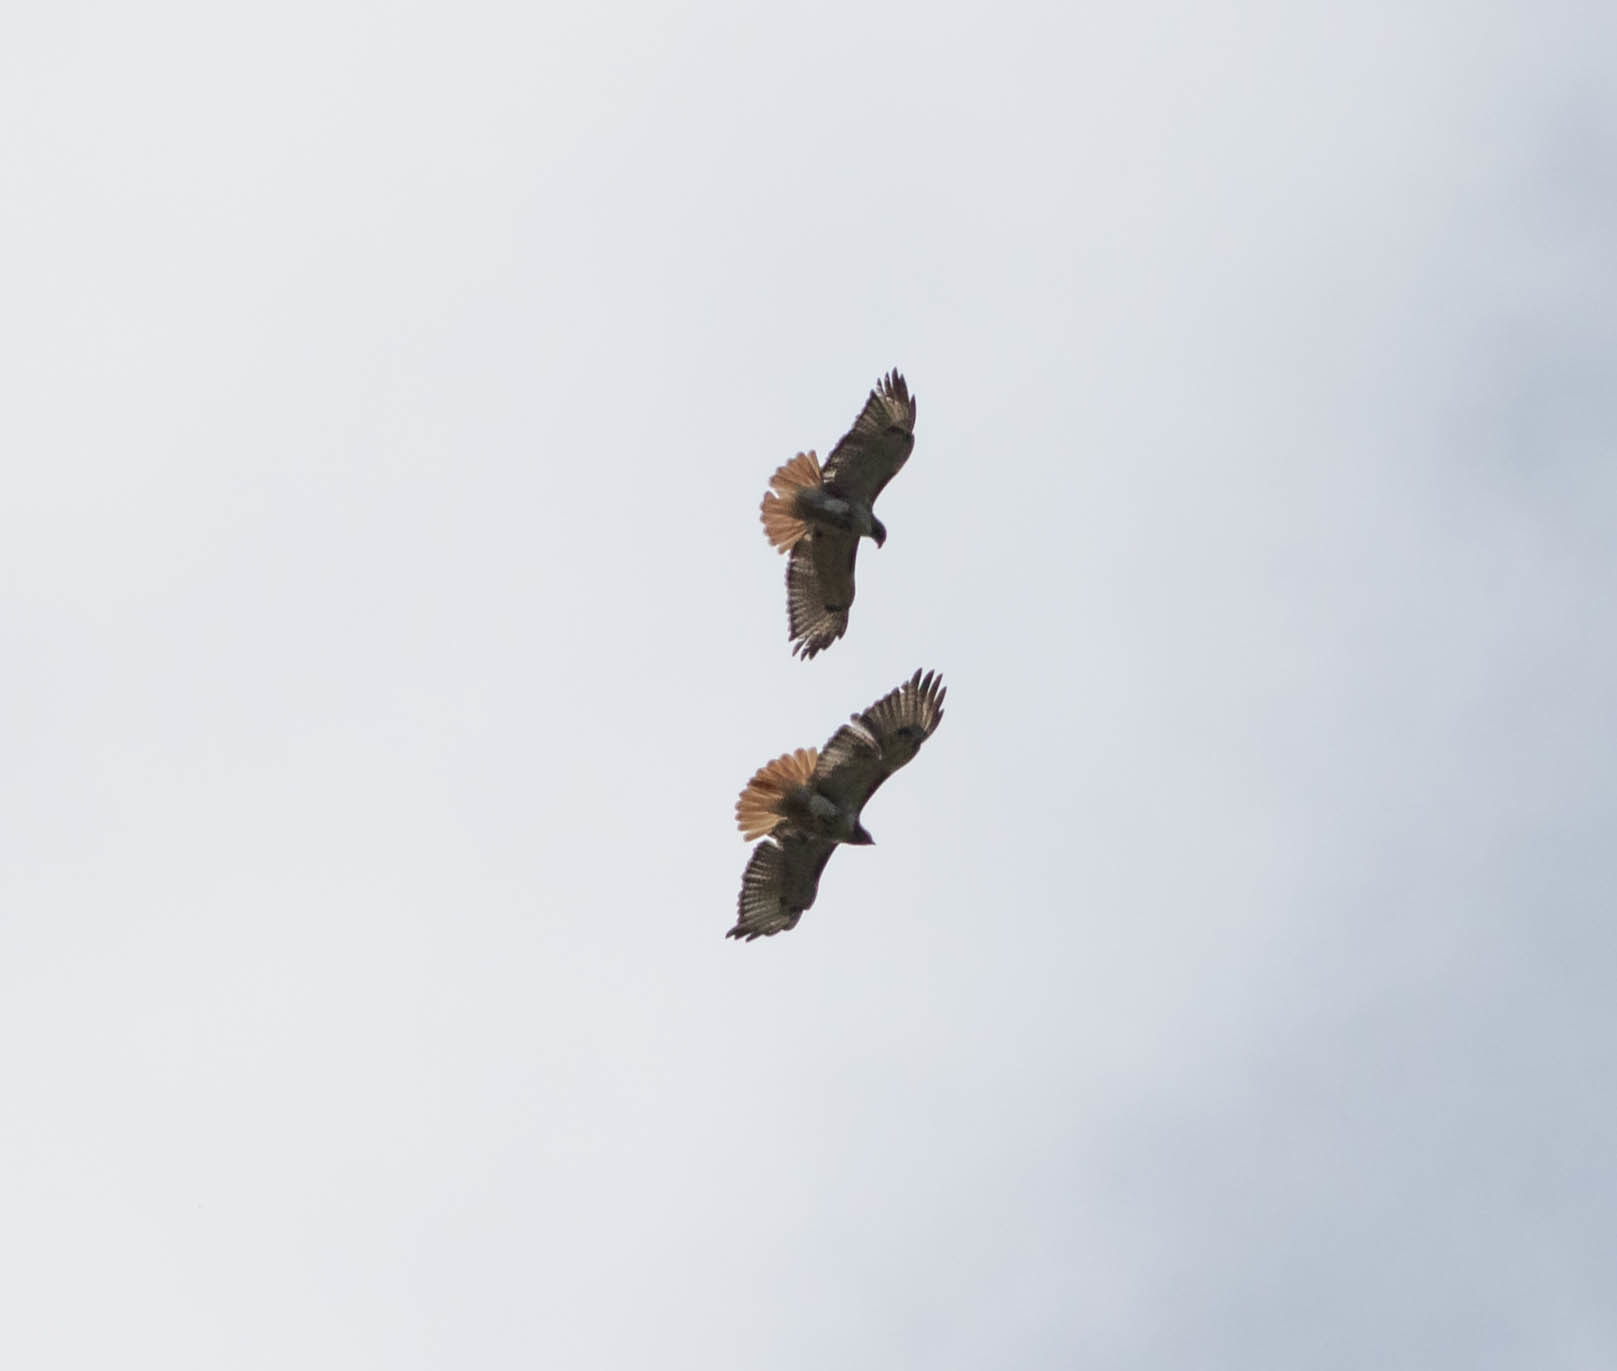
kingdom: Animalia
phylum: Chordata
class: Aves
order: Accipitriformes
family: Accipitridae
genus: Buteo
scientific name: Buteo jamaicensis
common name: Red-tailed hawk
